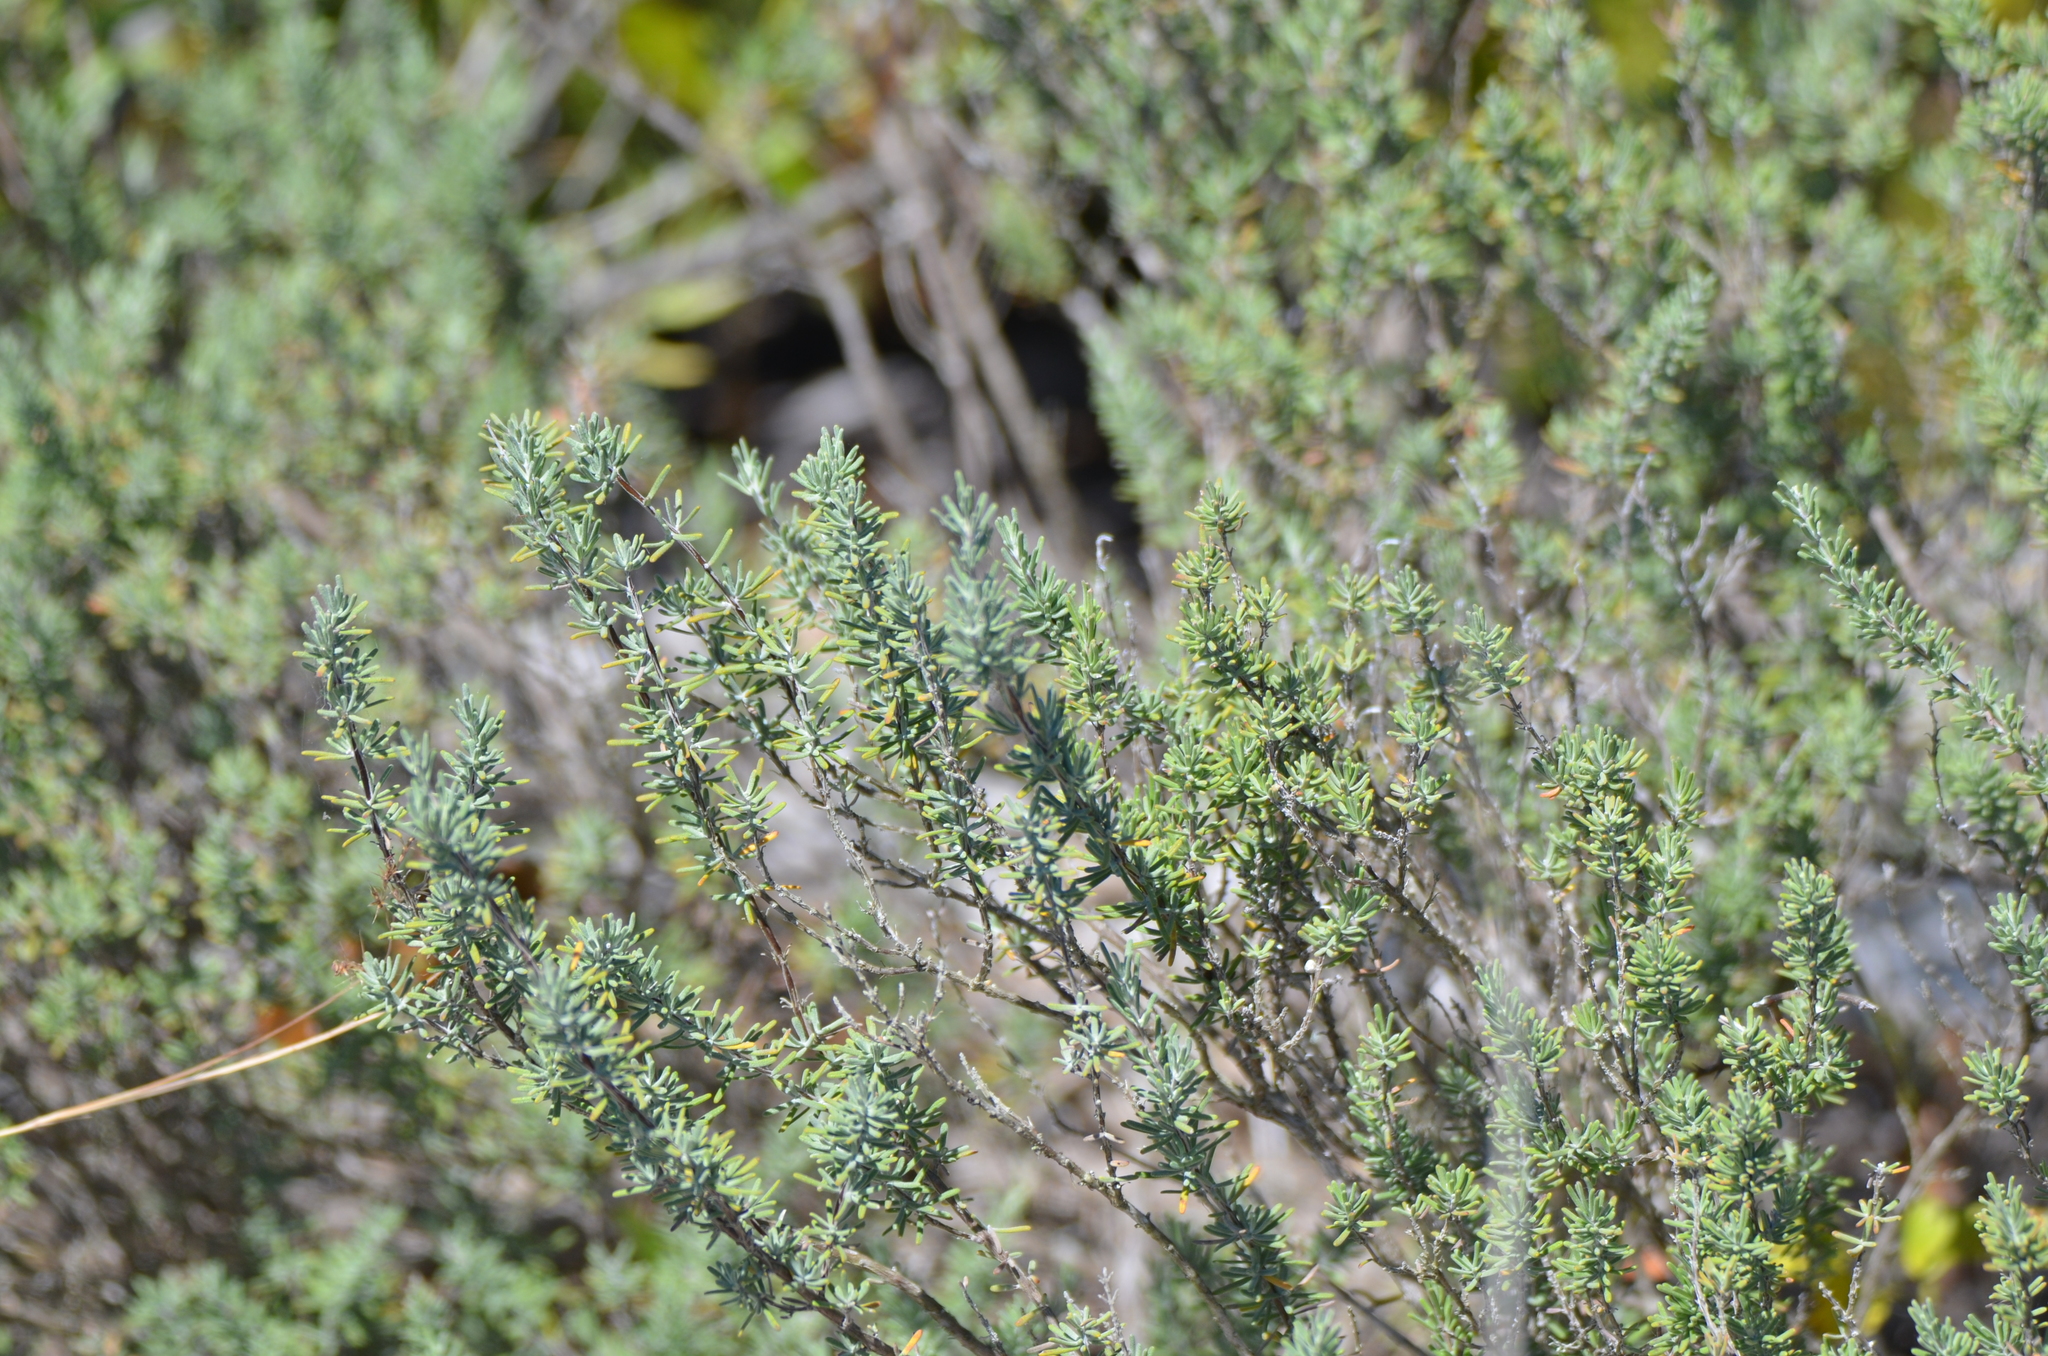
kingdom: Plantae
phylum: Tracheophyta
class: Magnoliopsida
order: Lamiales
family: Lamiaceae
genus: Conradina
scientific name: Conradina canescens
